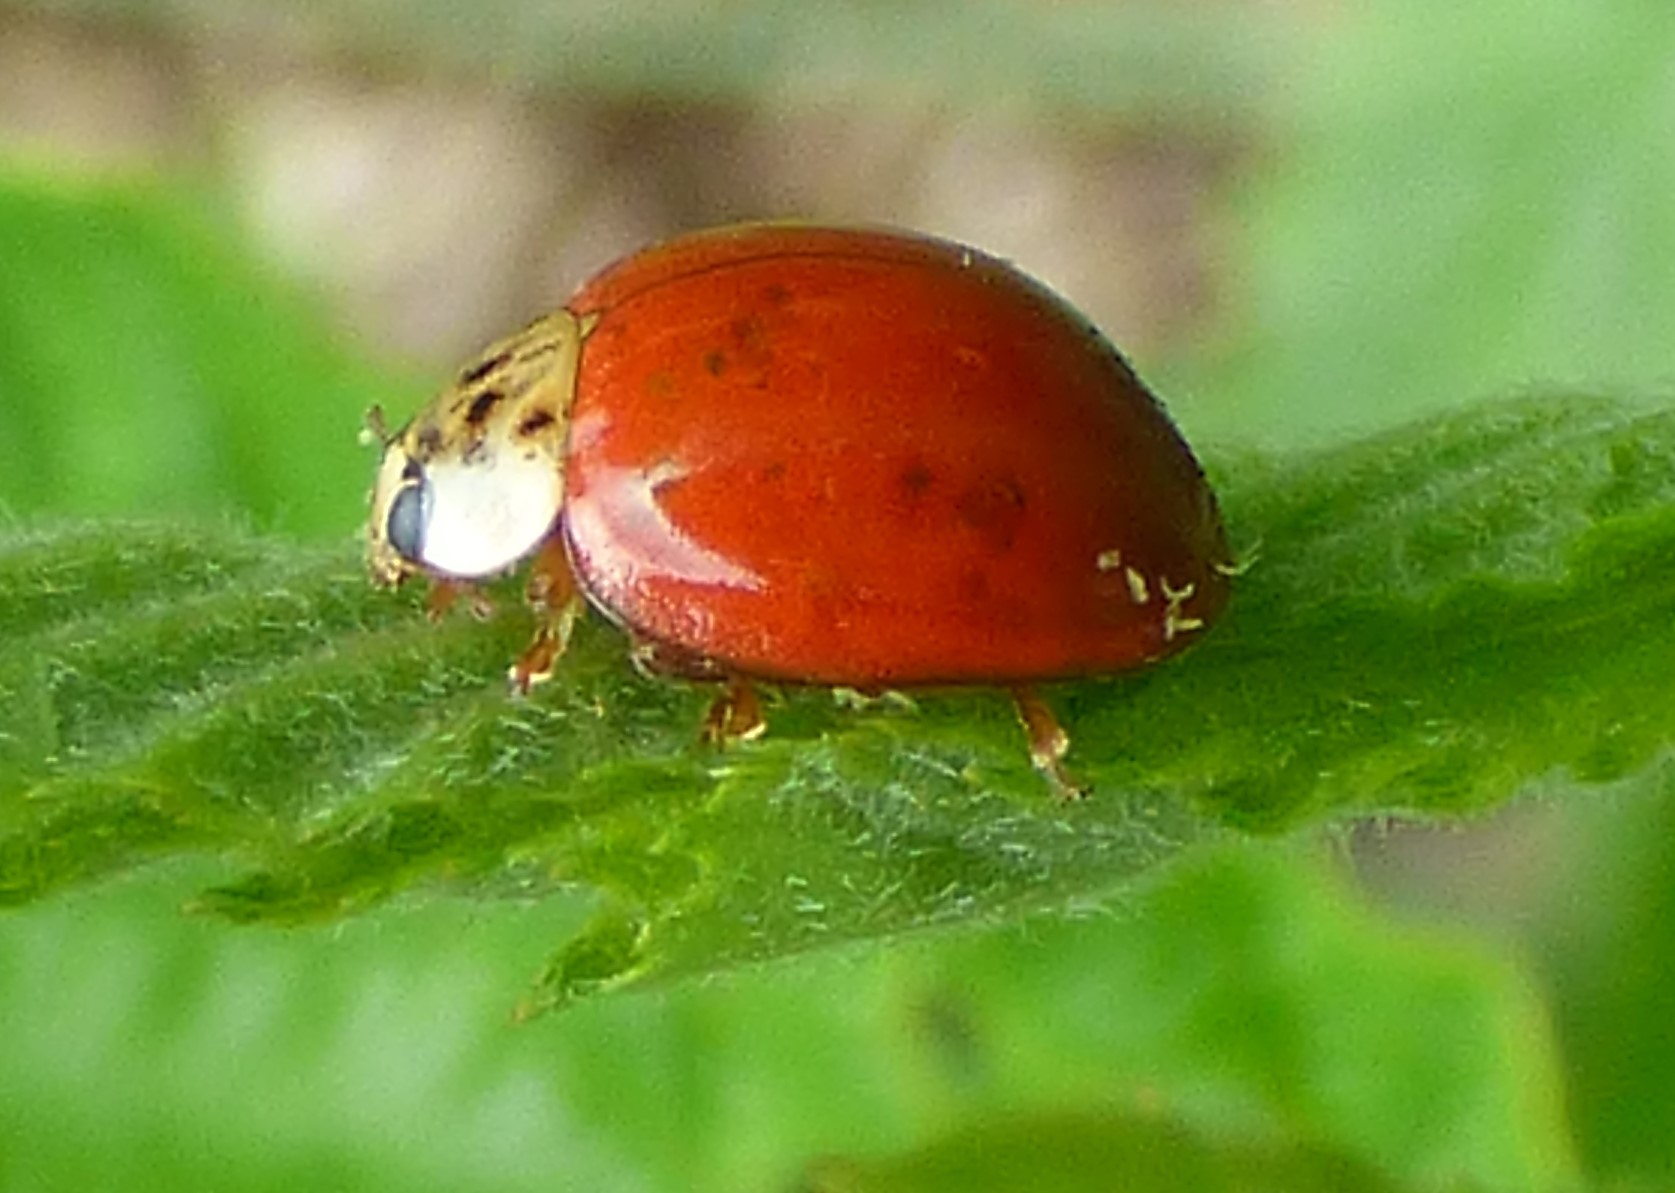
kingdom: Animalia
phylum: Arthropoda
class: Insecta
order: Coleoptera
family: Coccinellidae
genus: Harmonia
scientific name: Harmonia axyridis
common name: Harlequin ladybird
